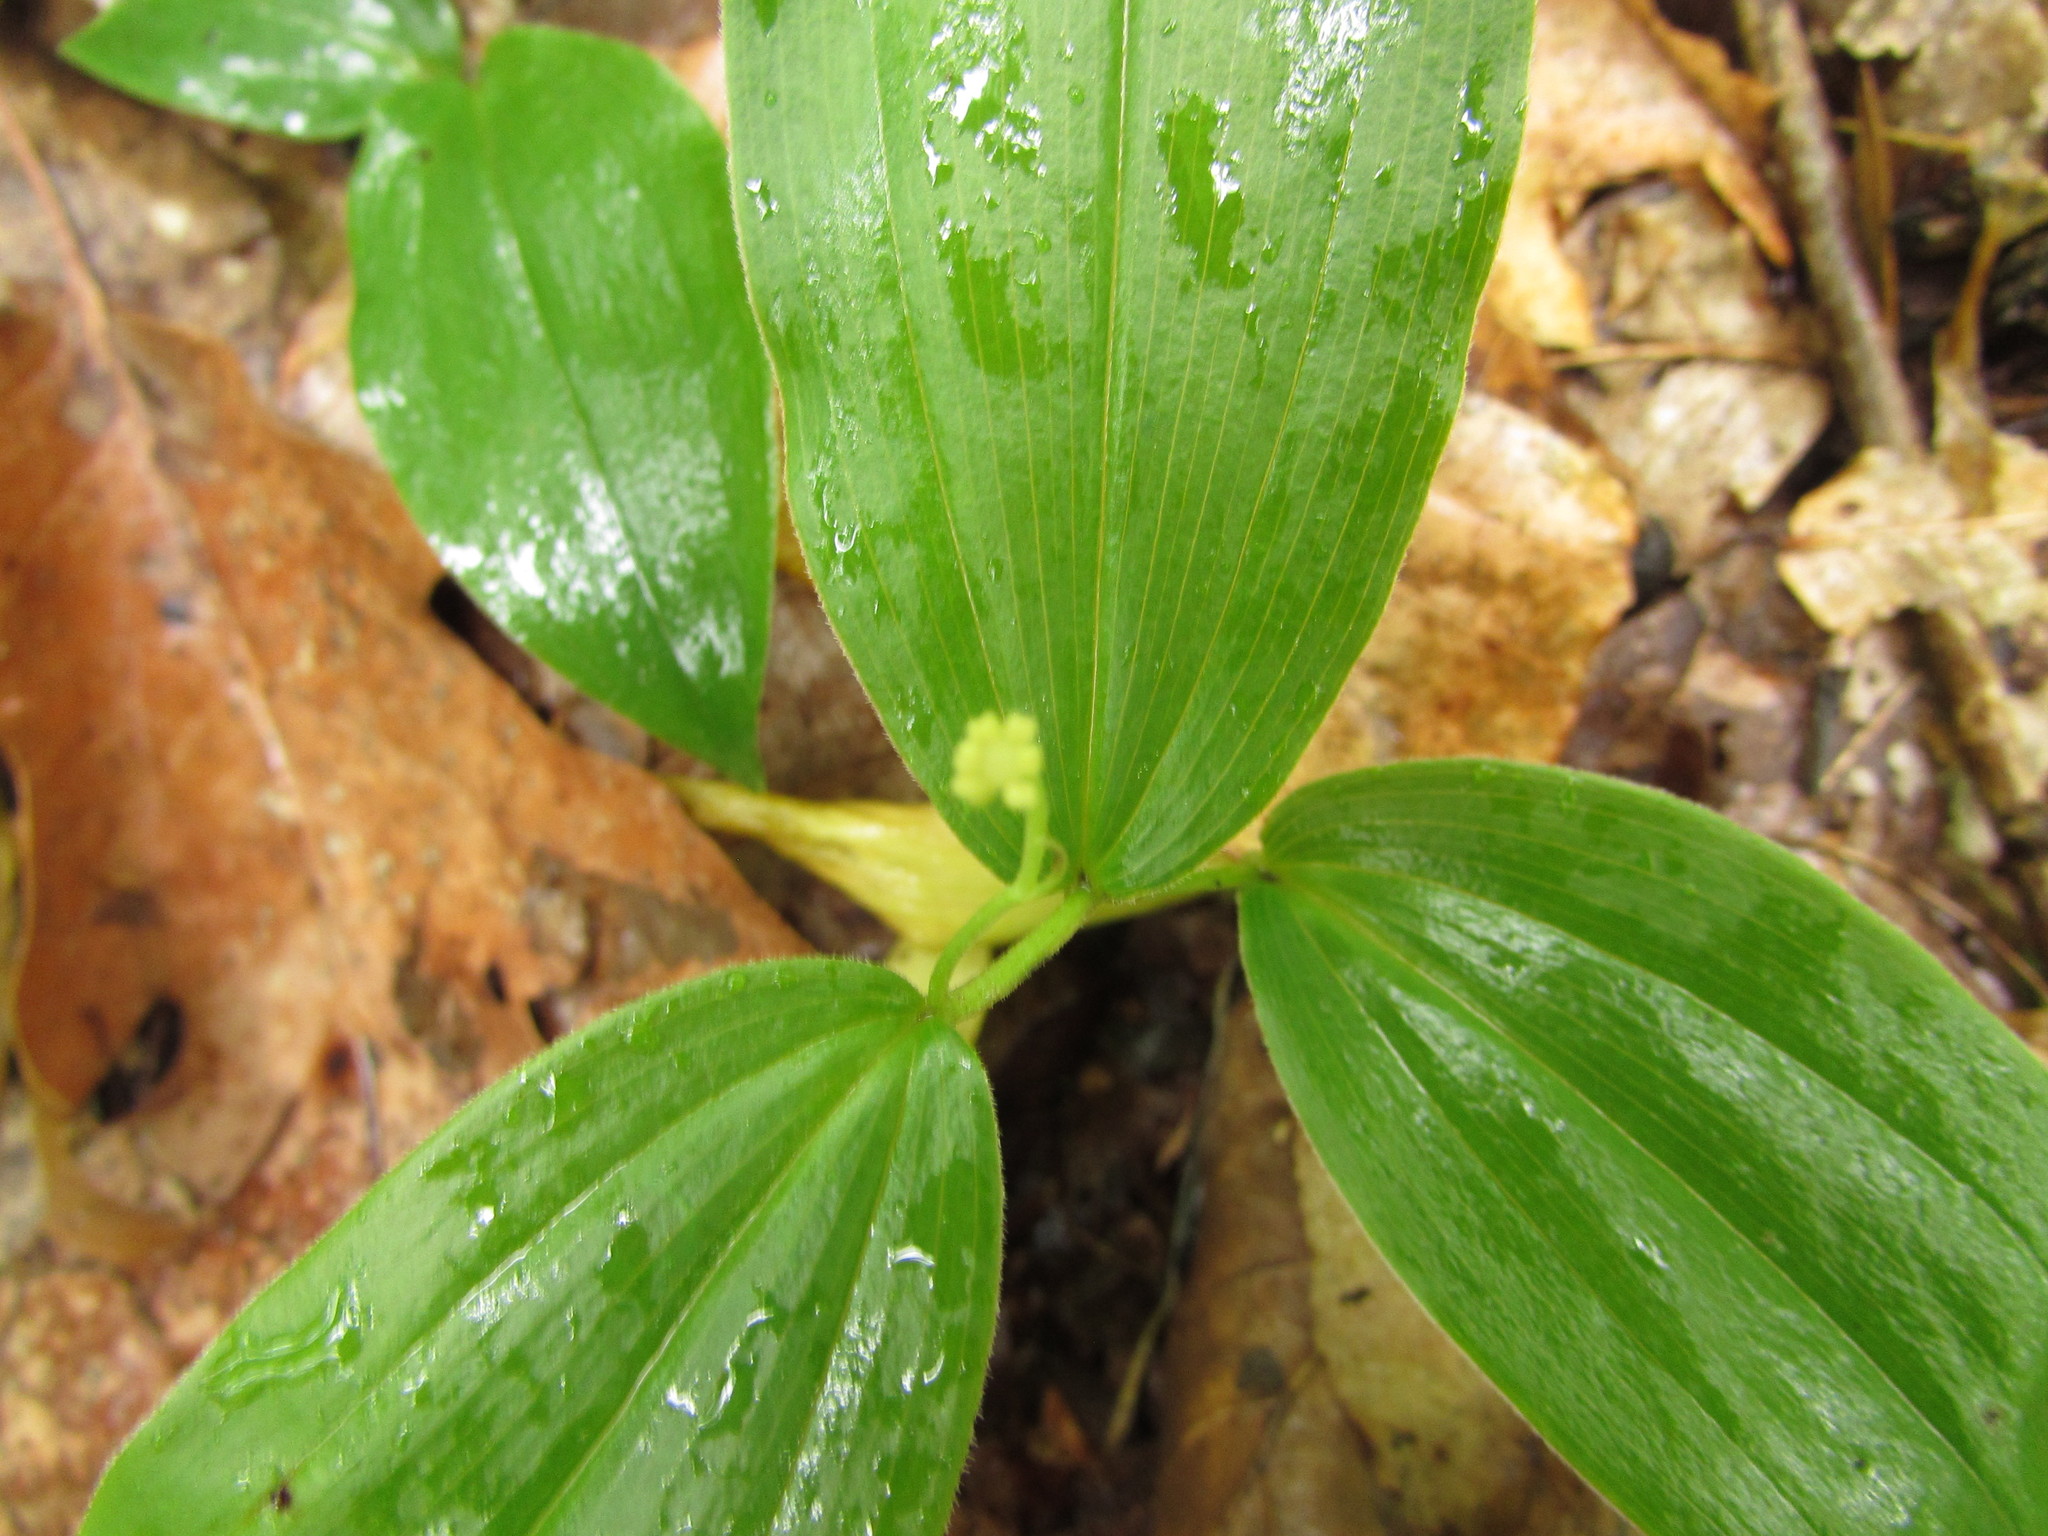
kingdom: Plantae
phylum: Tracheophyta
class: Liliopsida
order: Asparagales
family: Asparagaceae
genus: Maianthemum
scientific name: Maianthemum racemosum
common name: False spikenard
